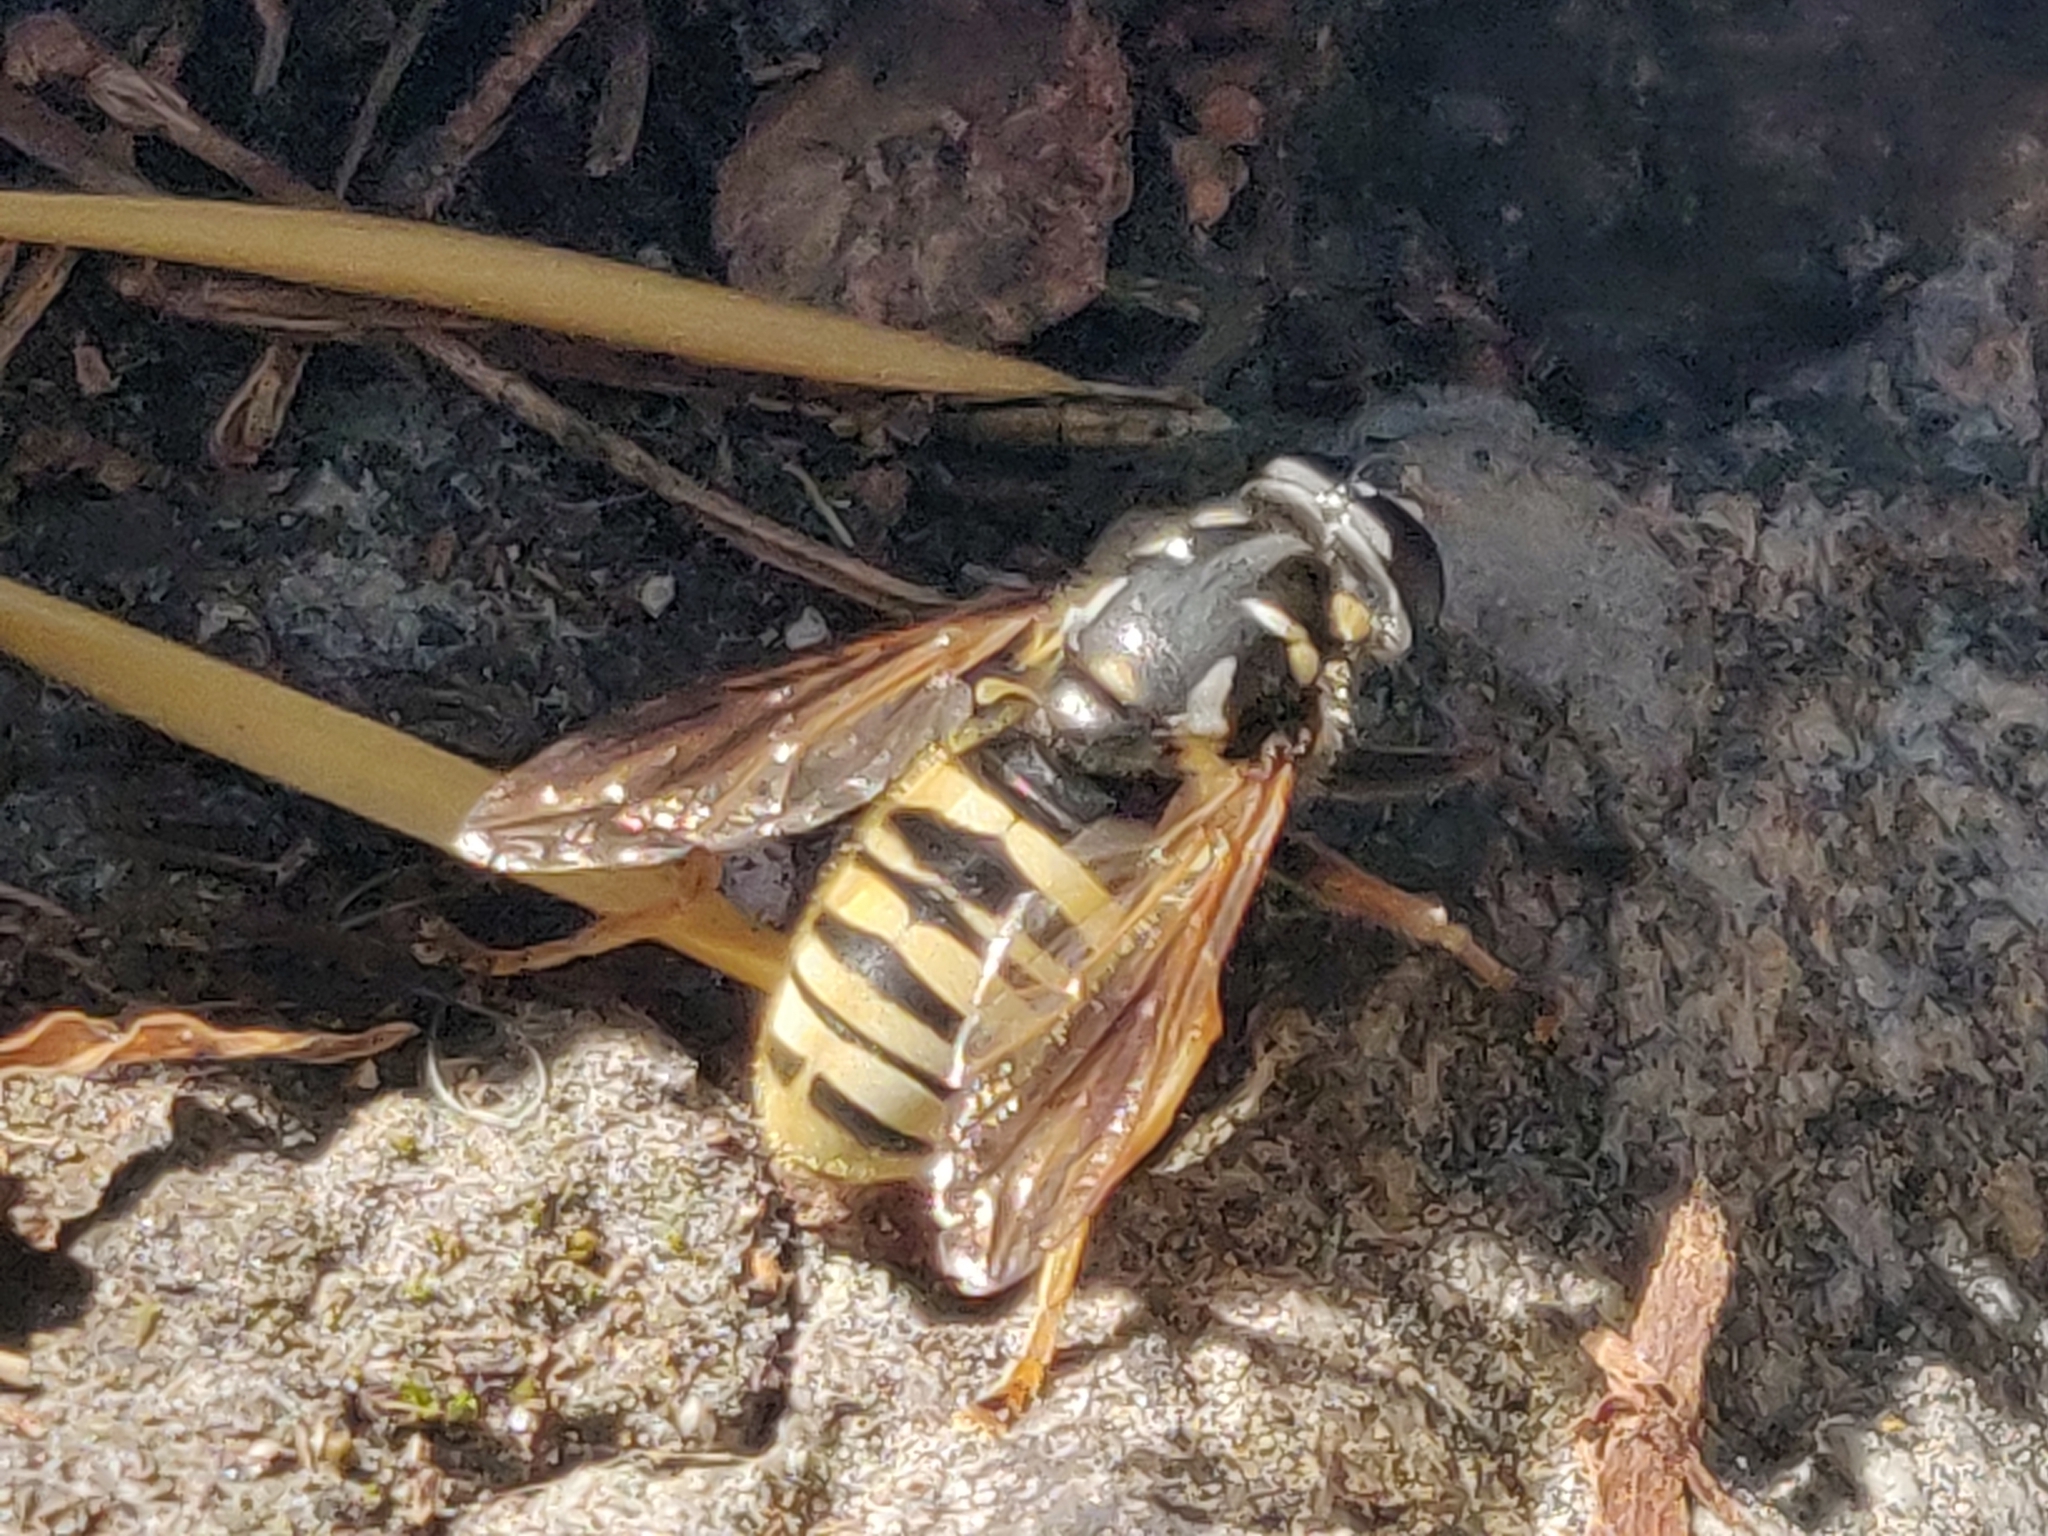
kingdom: Animalia
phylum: Arthropoda
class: Insecta
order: Diptera
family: Syrphidae
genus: Temnostoma
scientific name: Temnostoma vespiforme
